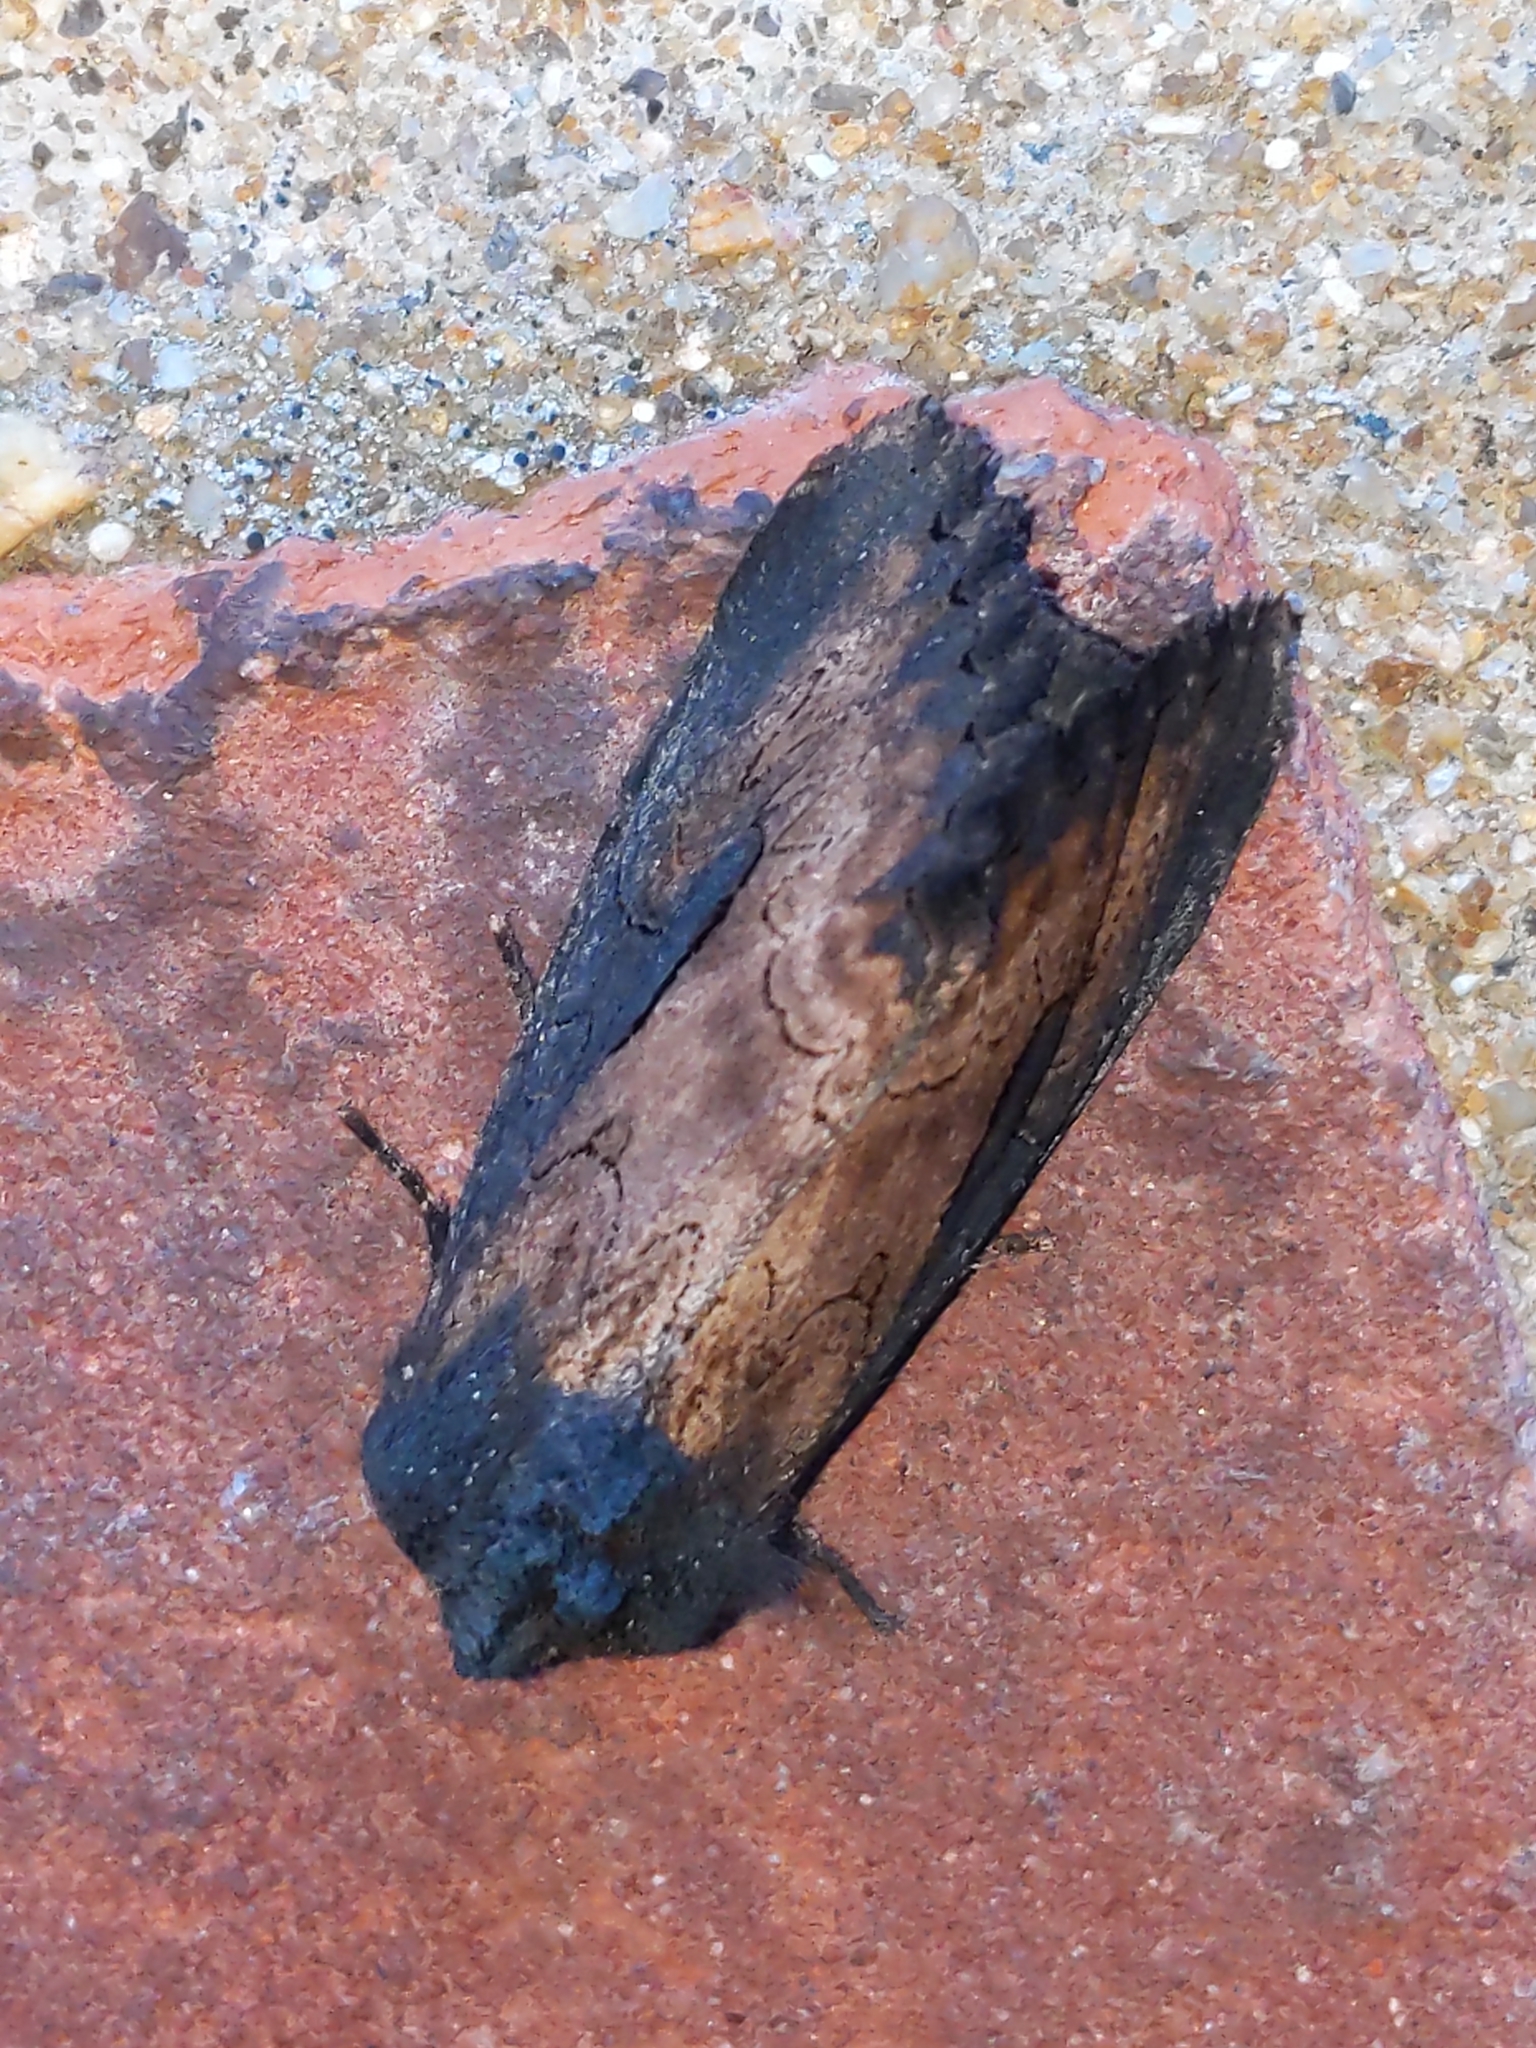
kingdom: Animalia
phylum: Arthropoda
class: Insecta
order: Lepidoptera
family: Noctuidae
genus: Macronoctua
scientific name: Macronoctua onusta
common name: Iris borer
